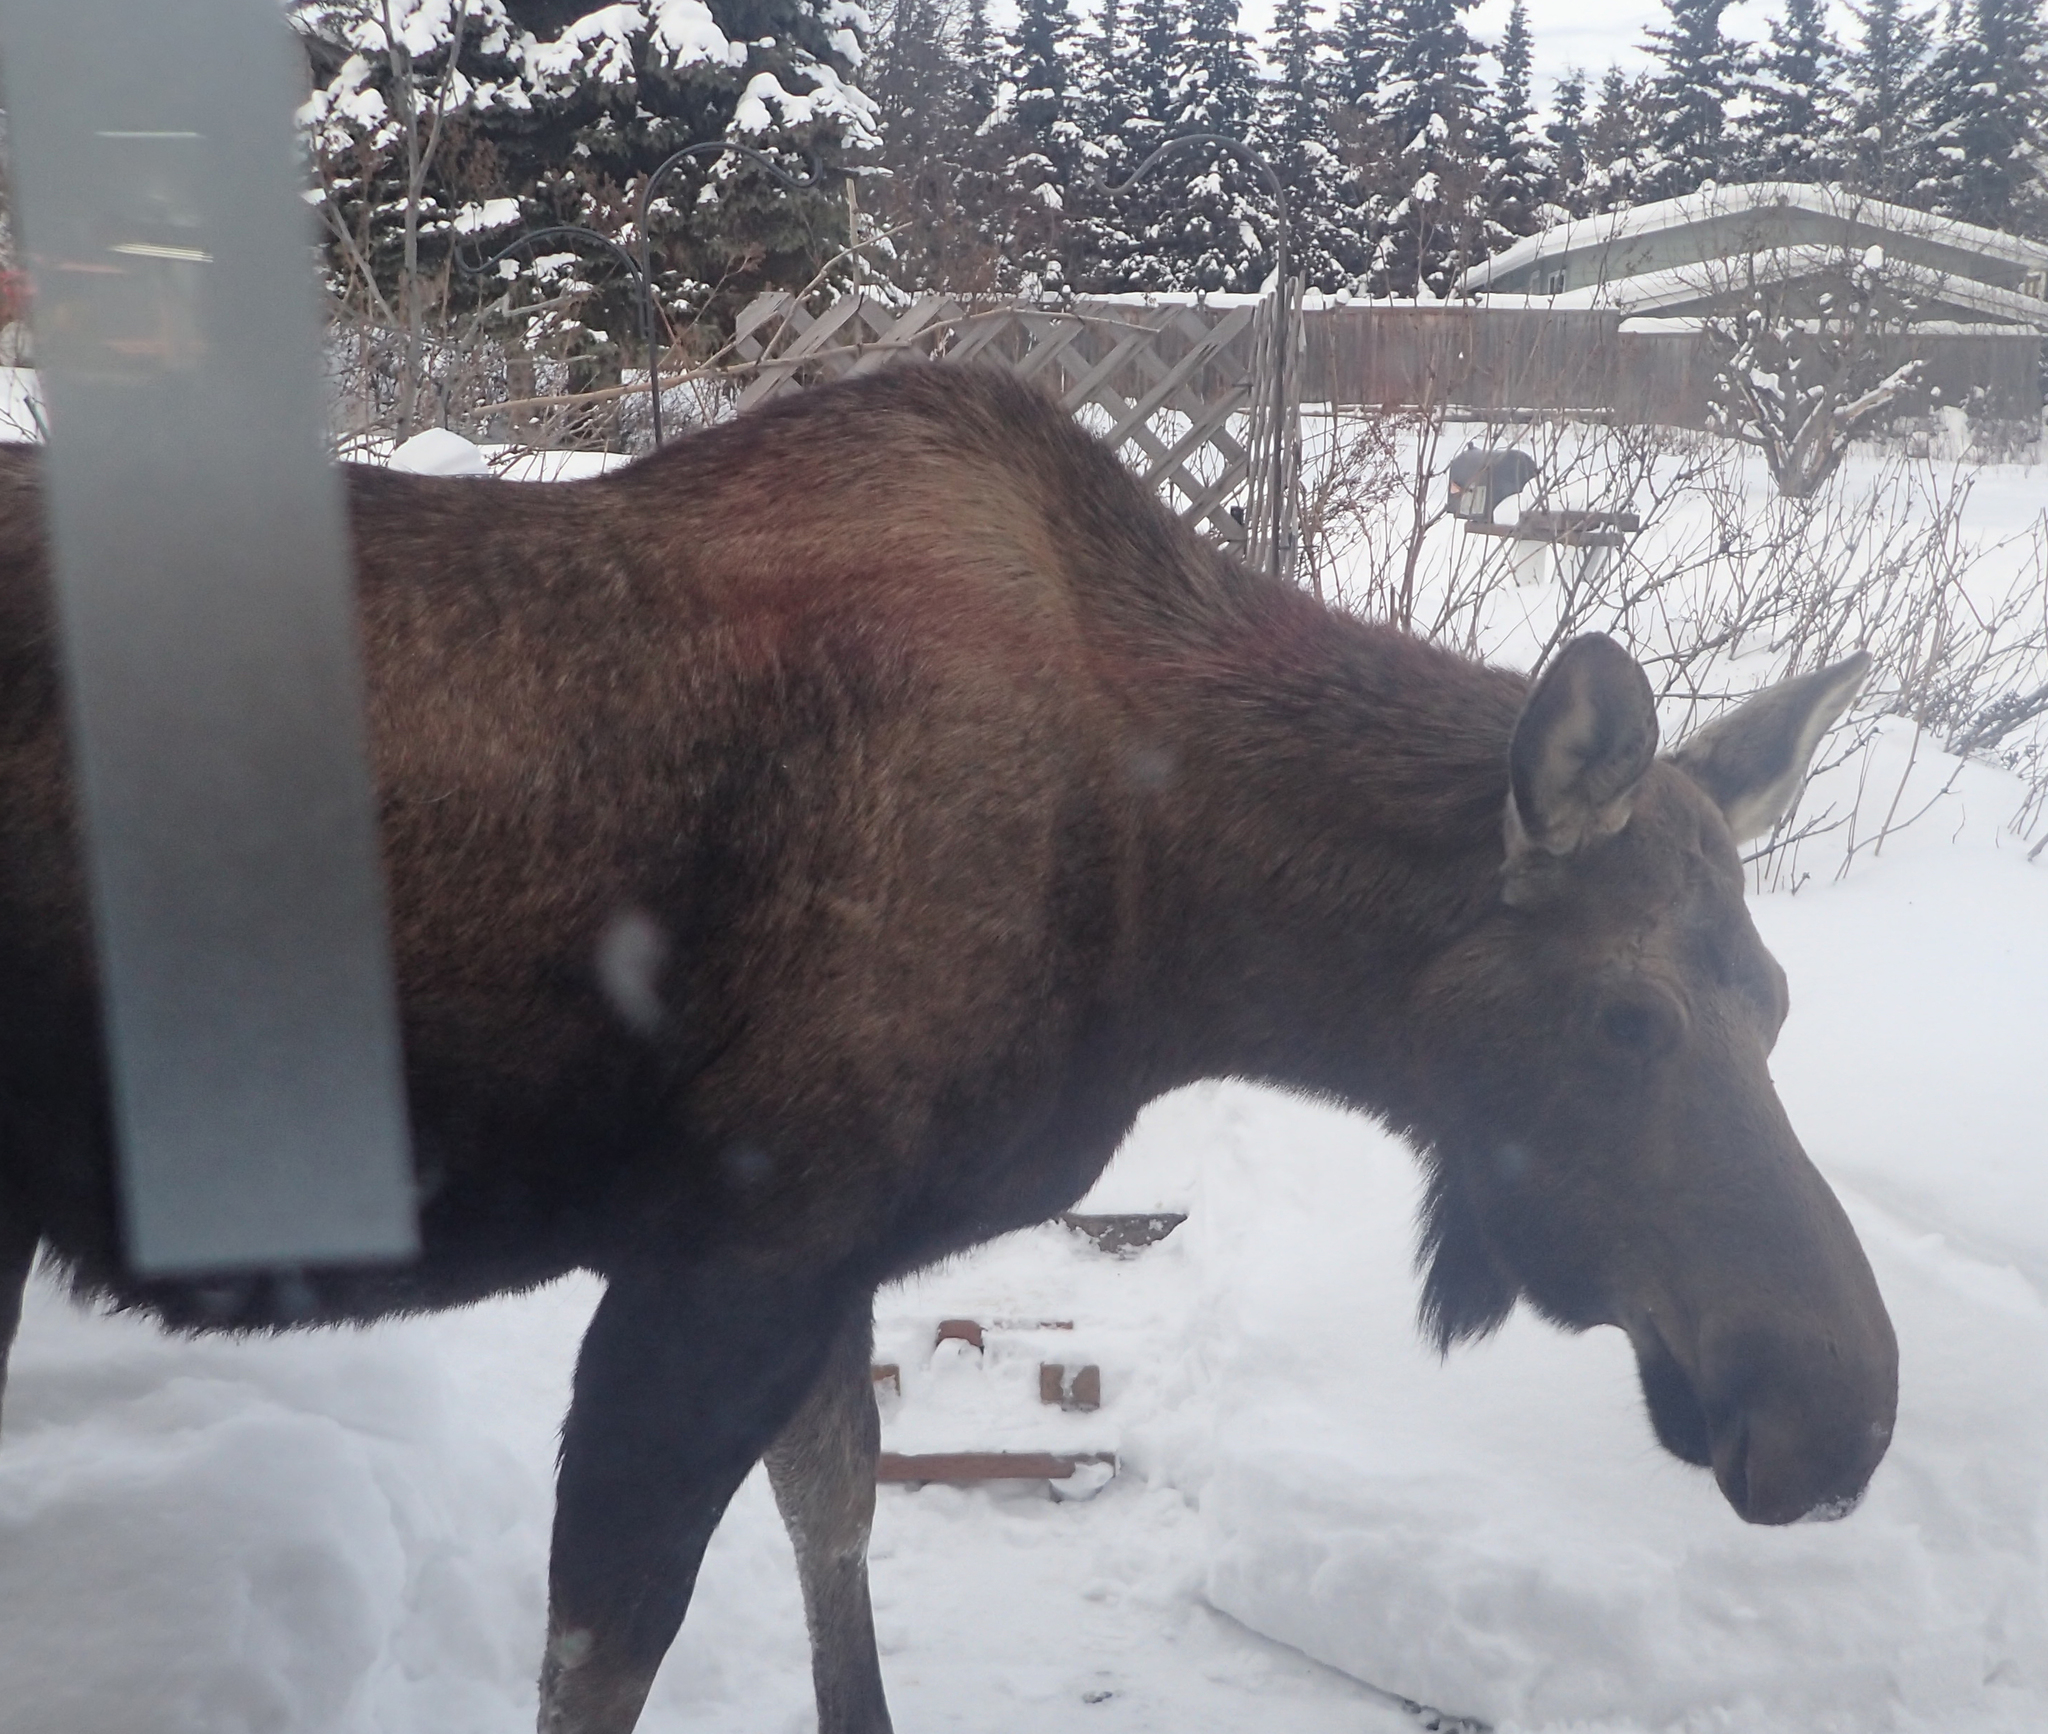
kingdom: Animalia
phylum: Chordata
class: Mammalia
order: Artiodactyla
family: Cervidae
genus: Alces
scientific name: Alces alces
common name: Moose
